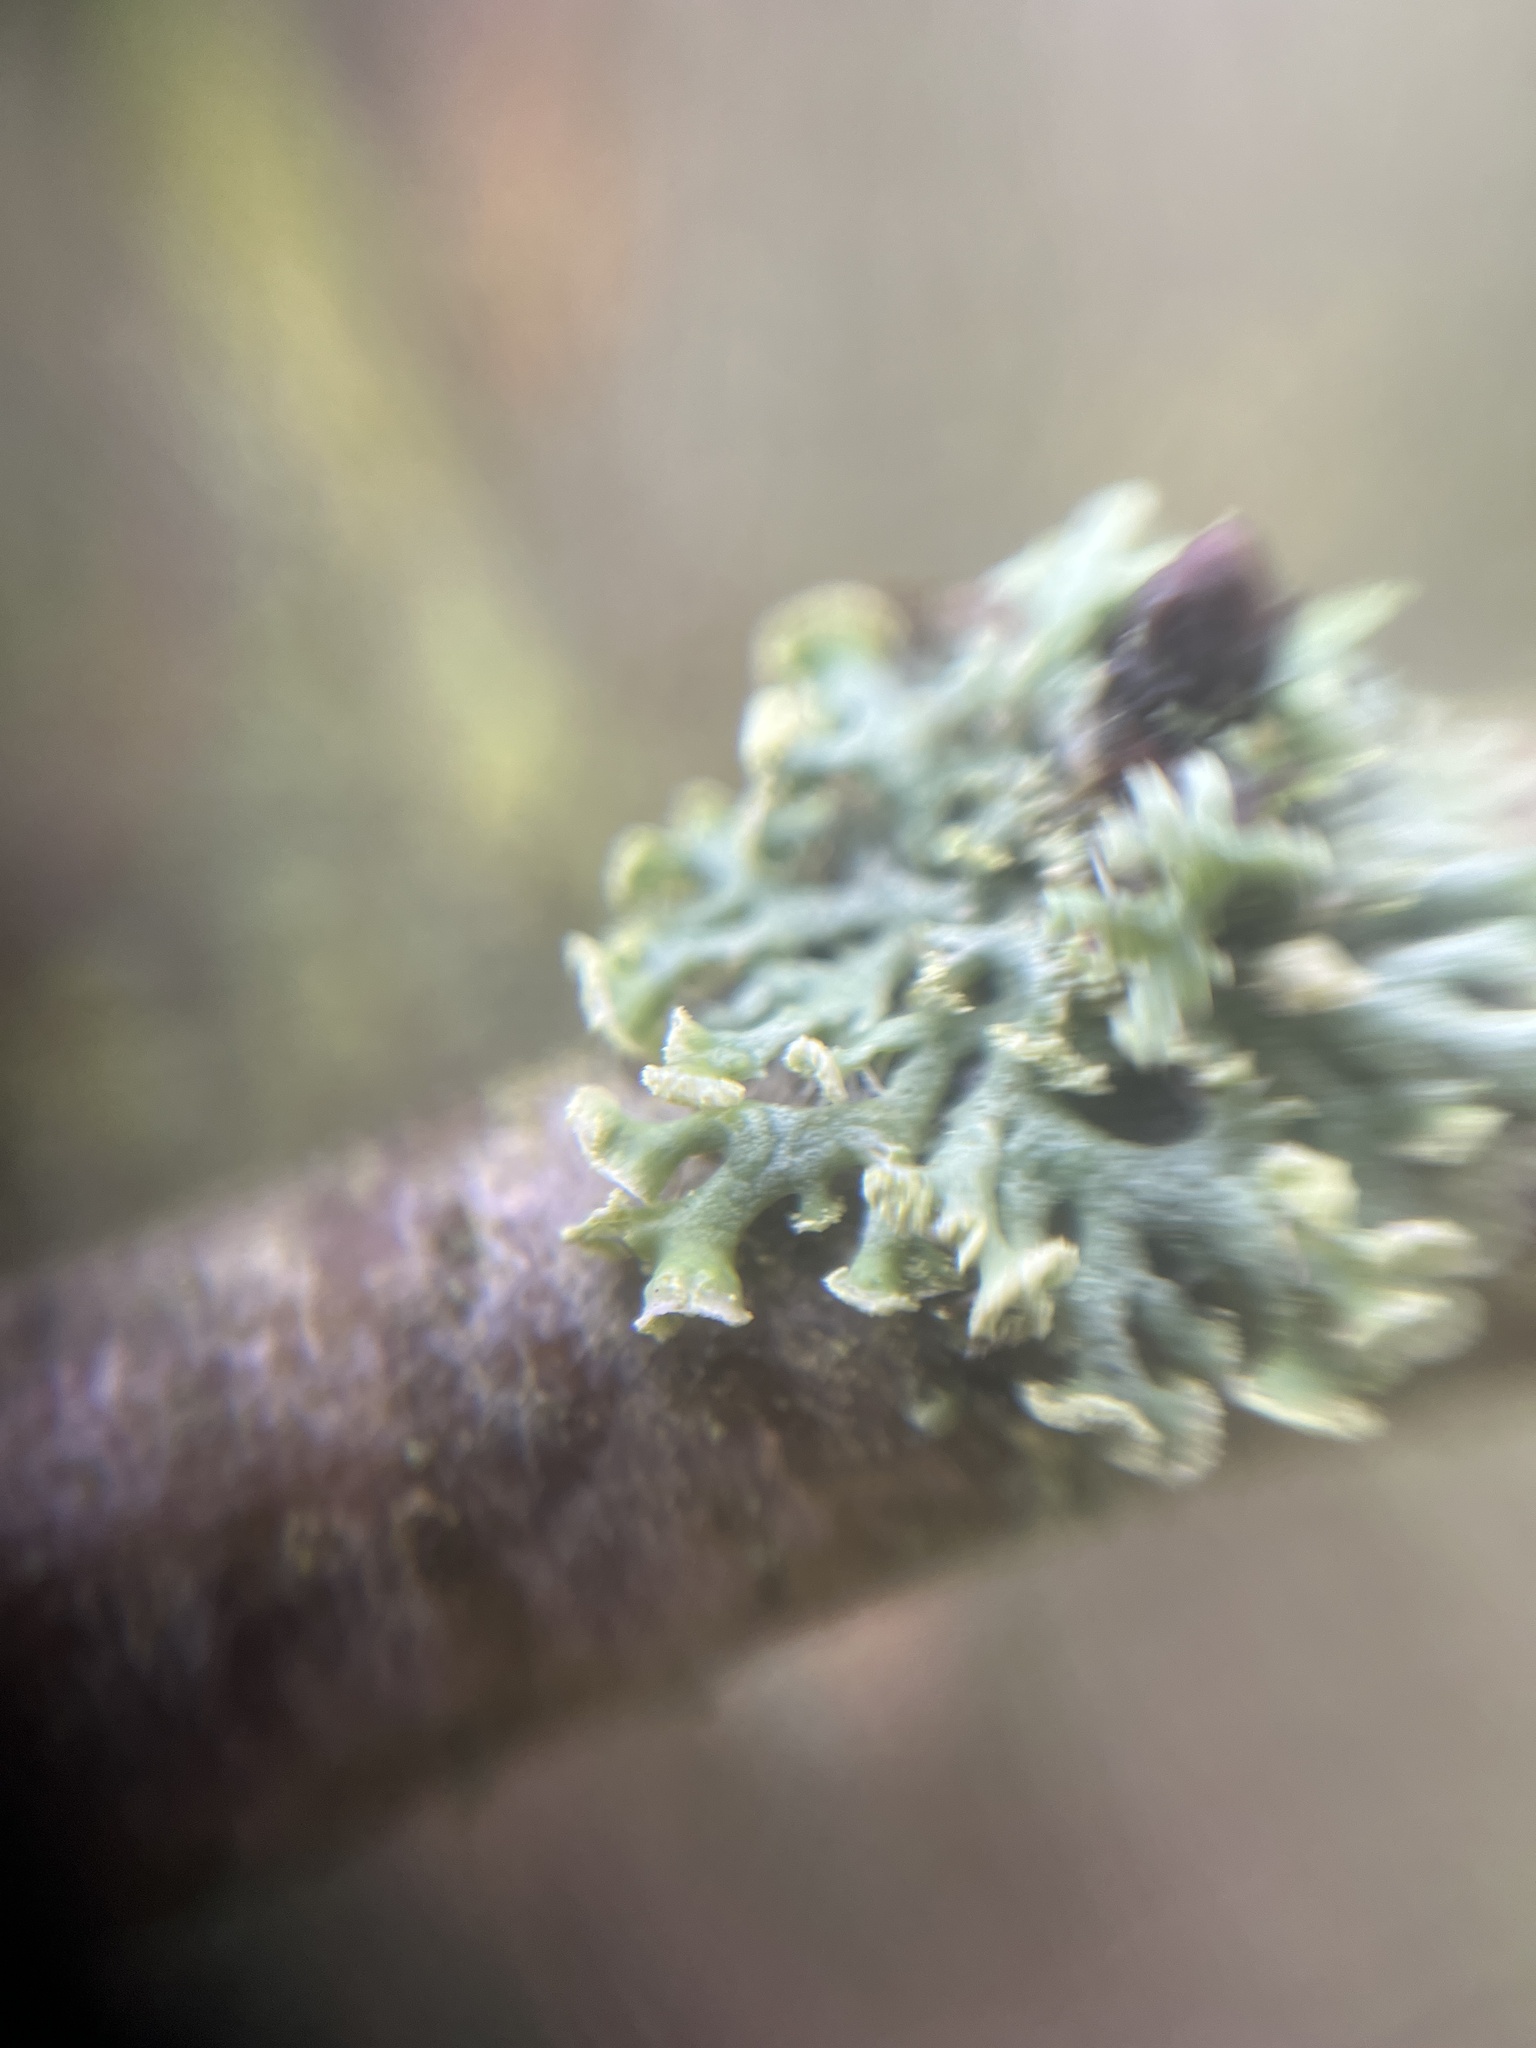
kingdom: Fungi
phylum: Ascomycota
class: Lecanoromycetes
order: Caliciales
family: Physciaceae
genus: Physcia
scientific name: Physcia tenella
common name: Fringed rosette lichen
